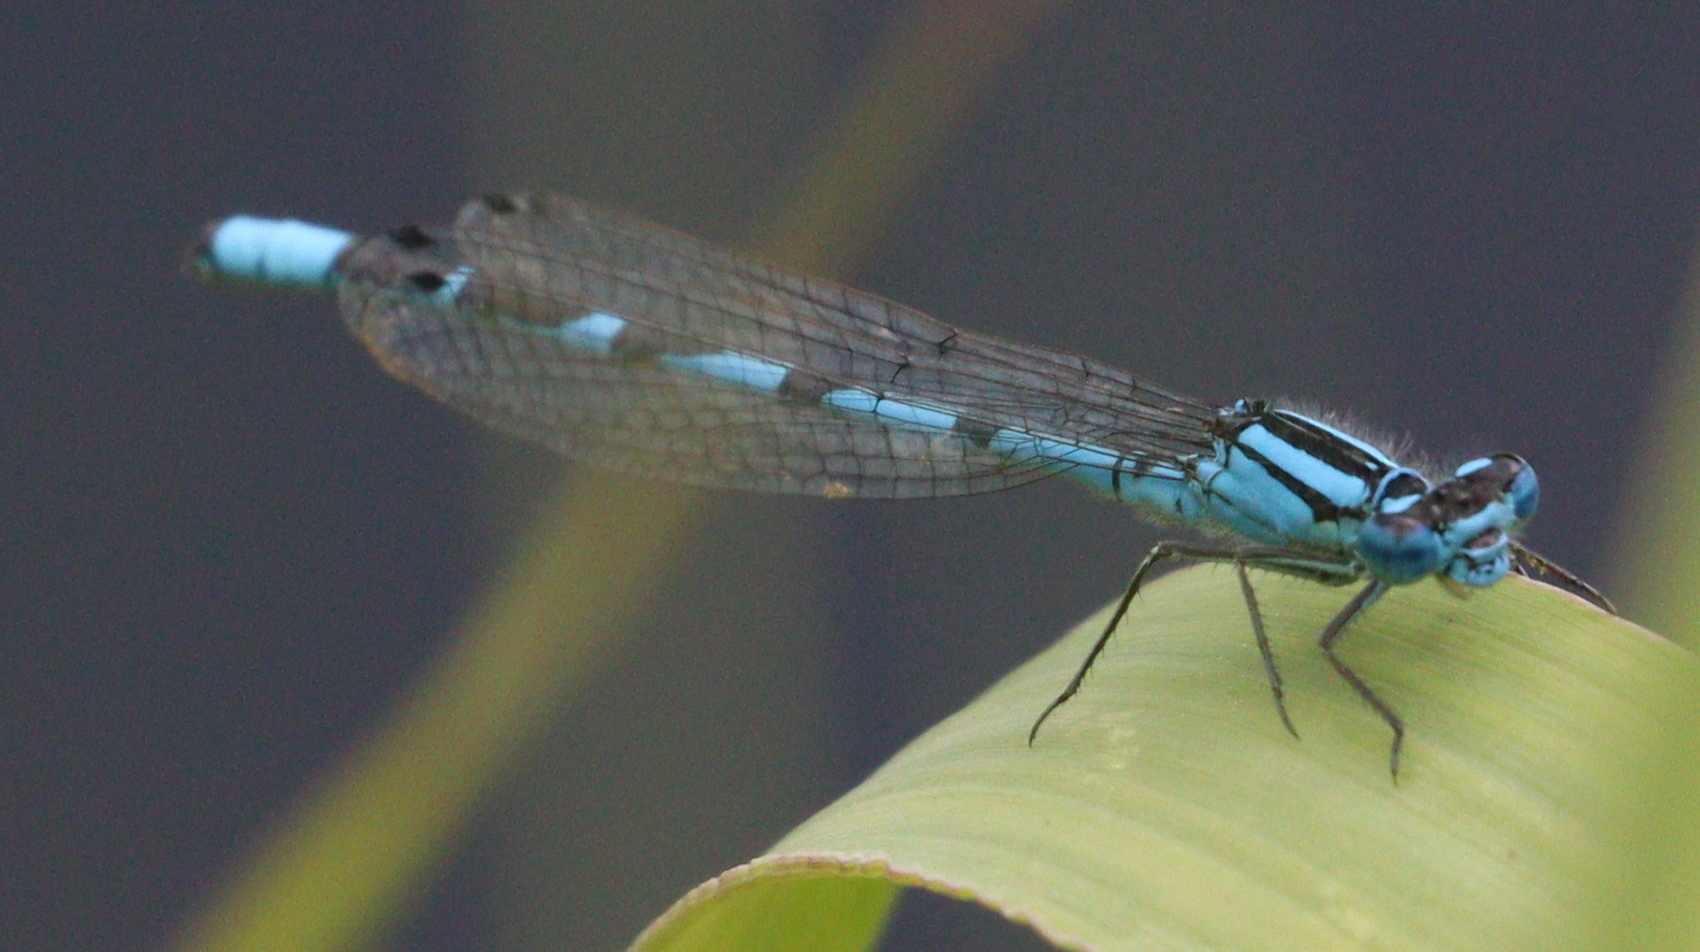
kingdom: Animalia
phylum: Arthropoda
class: Insecta
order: Odonata
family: Coenagrionidae
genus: Enallagma
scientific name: Enallagma cyathigerum
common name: Common blue damselfly
